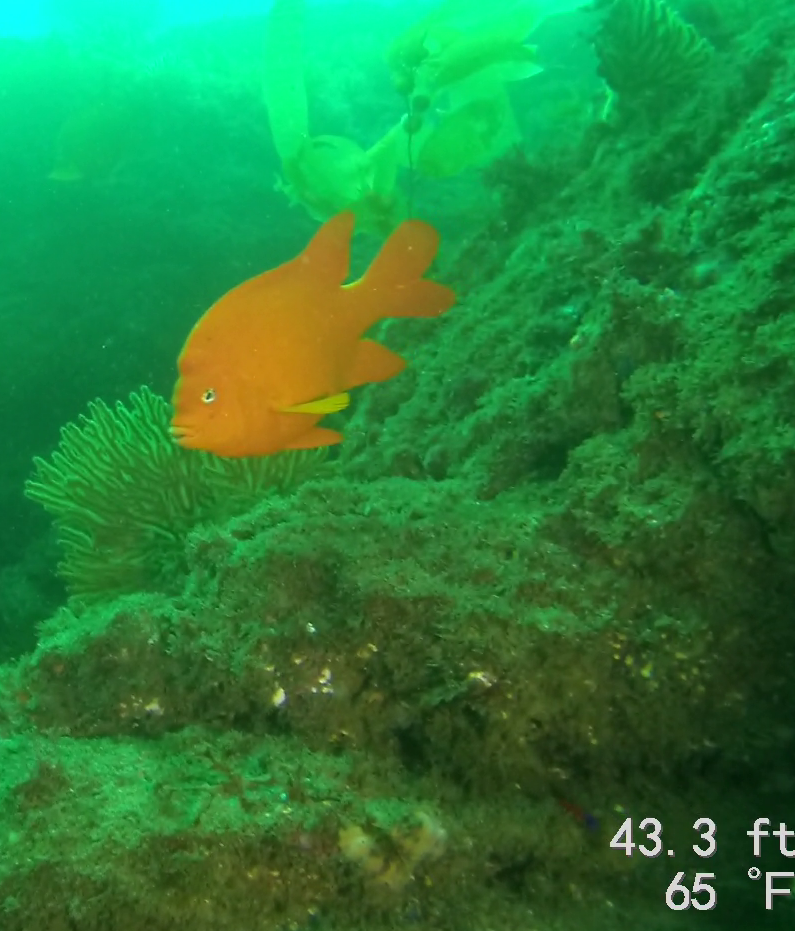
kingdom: Animalia
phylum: Chordata
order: Perciformes
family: Pomacentridae
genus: Hypsypops
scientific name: Hypsypops rubicundus
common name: Garibaldi
